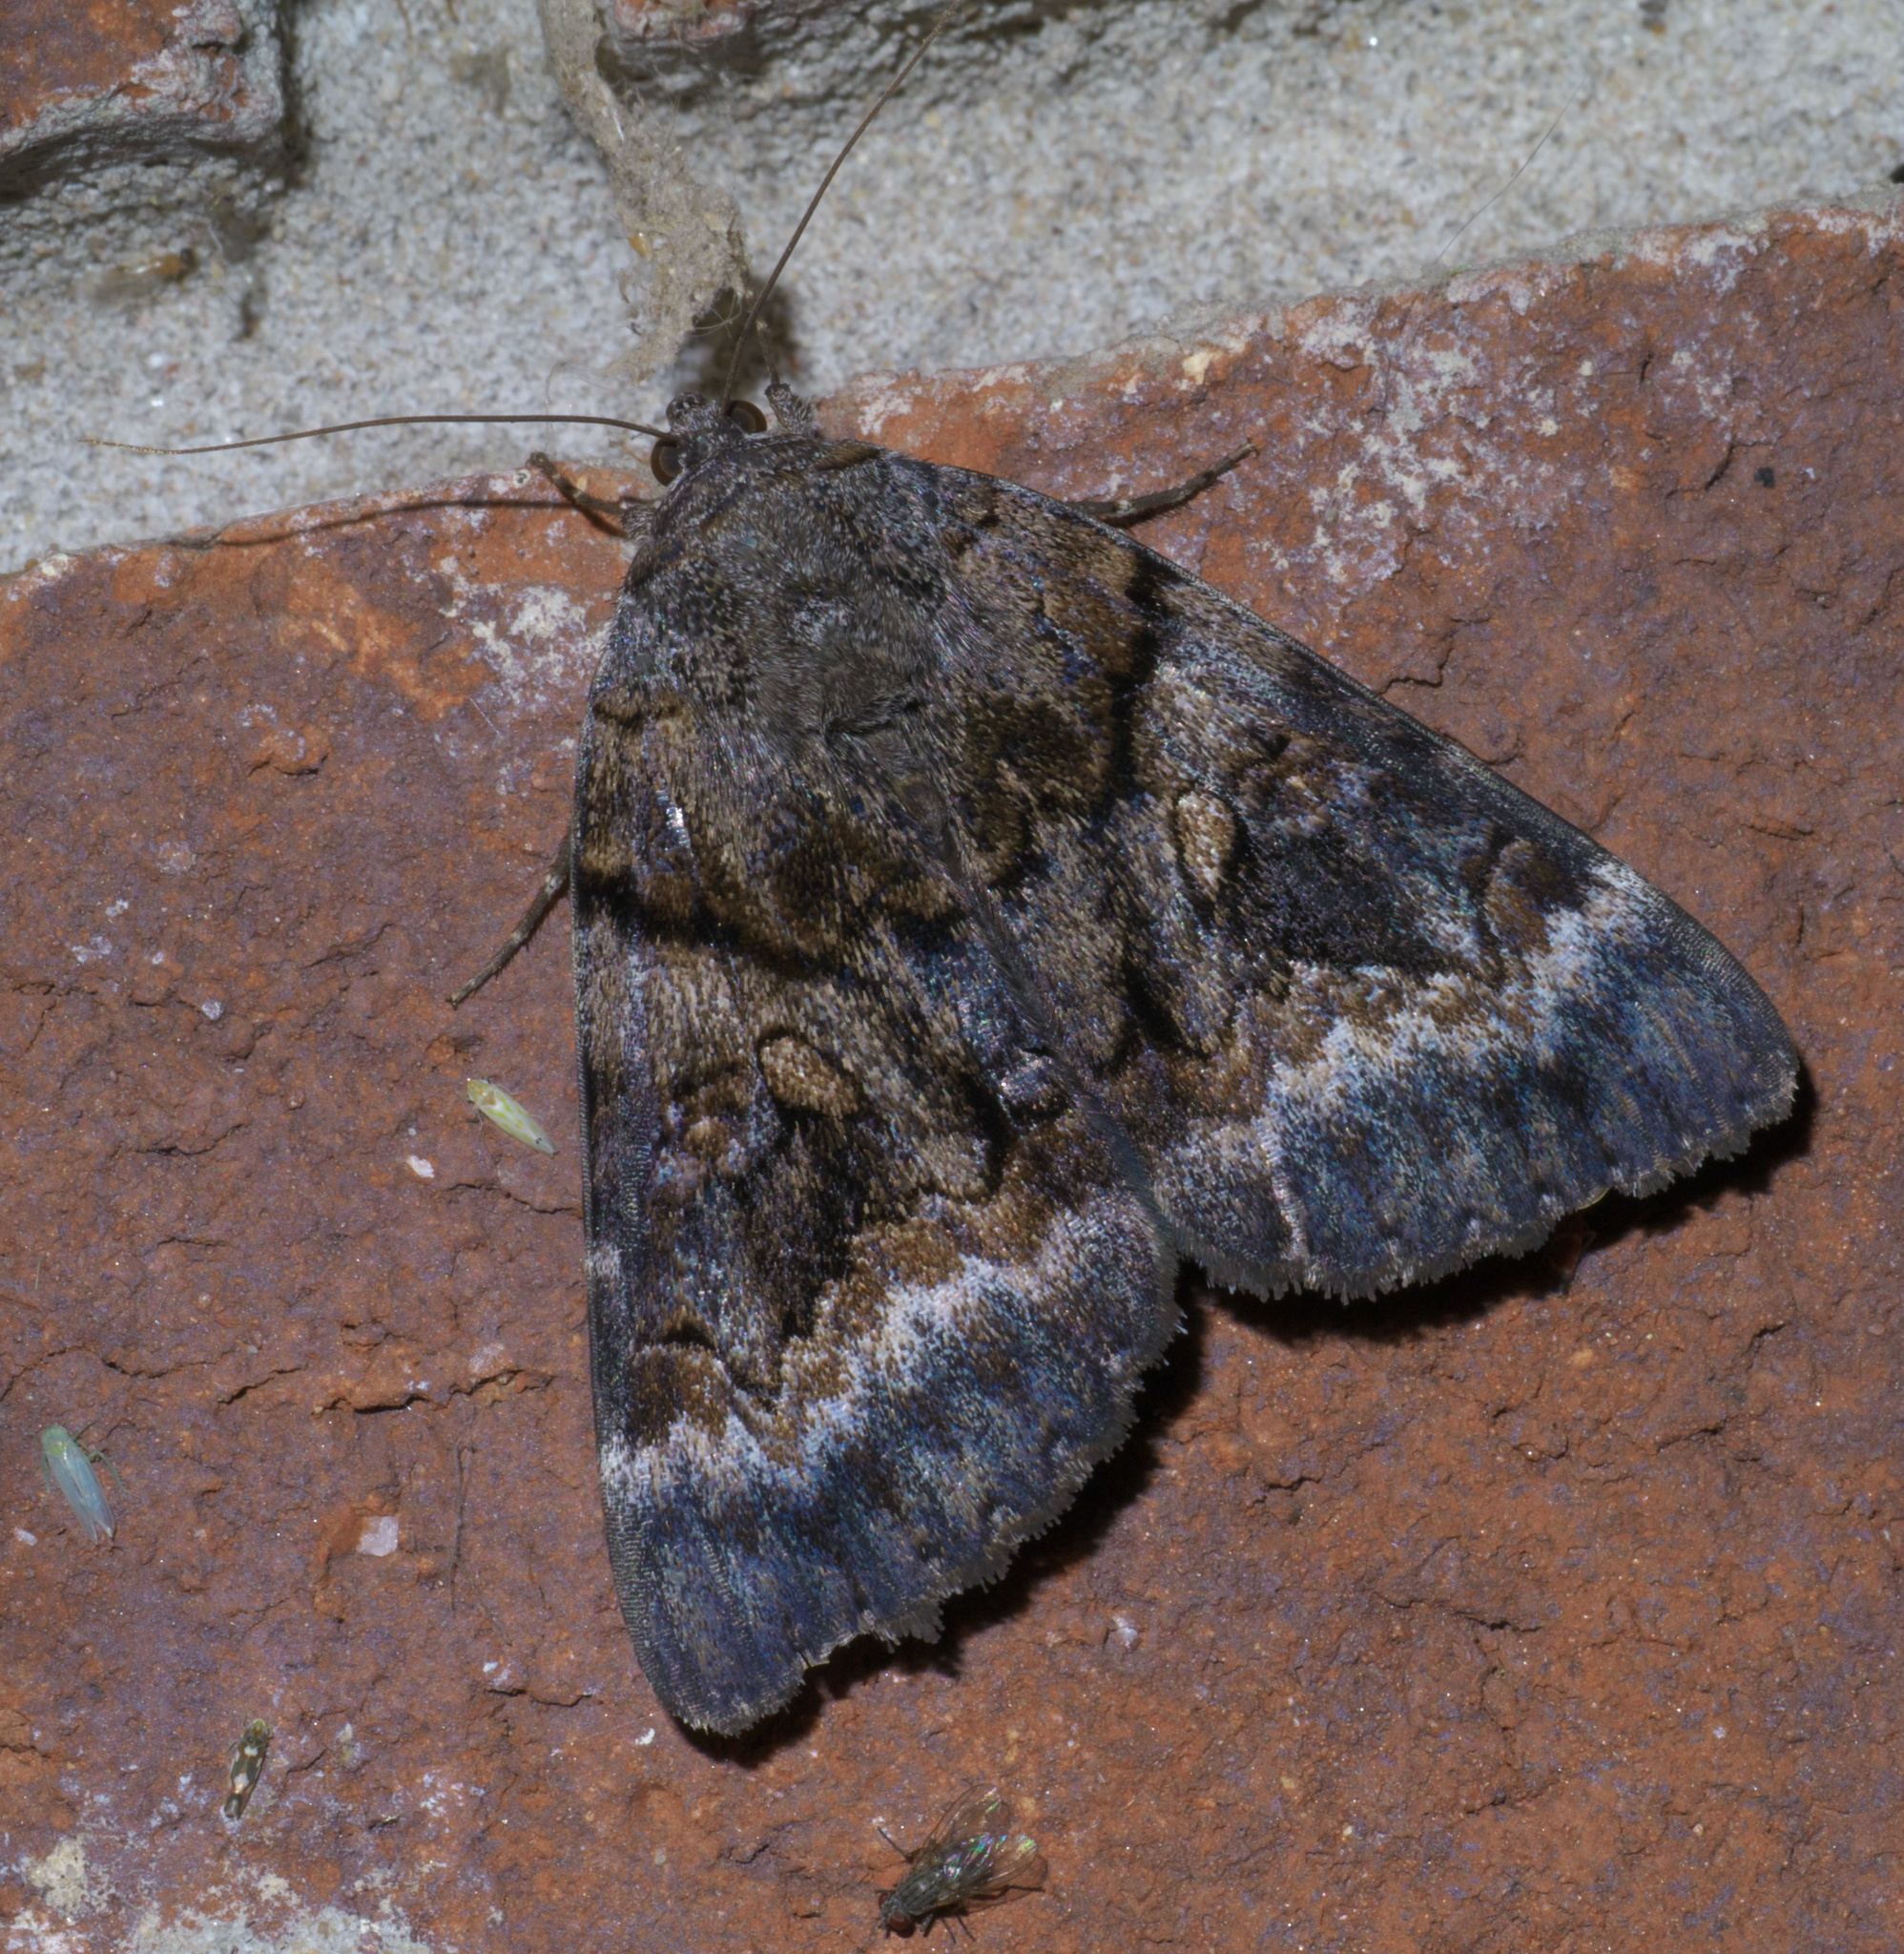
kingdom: Animalia
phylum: Arthropoda
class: Insecta
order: Lepidoptera
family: Erebidae
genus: Catocala
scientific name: Catocala epione
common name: Epione underwing
